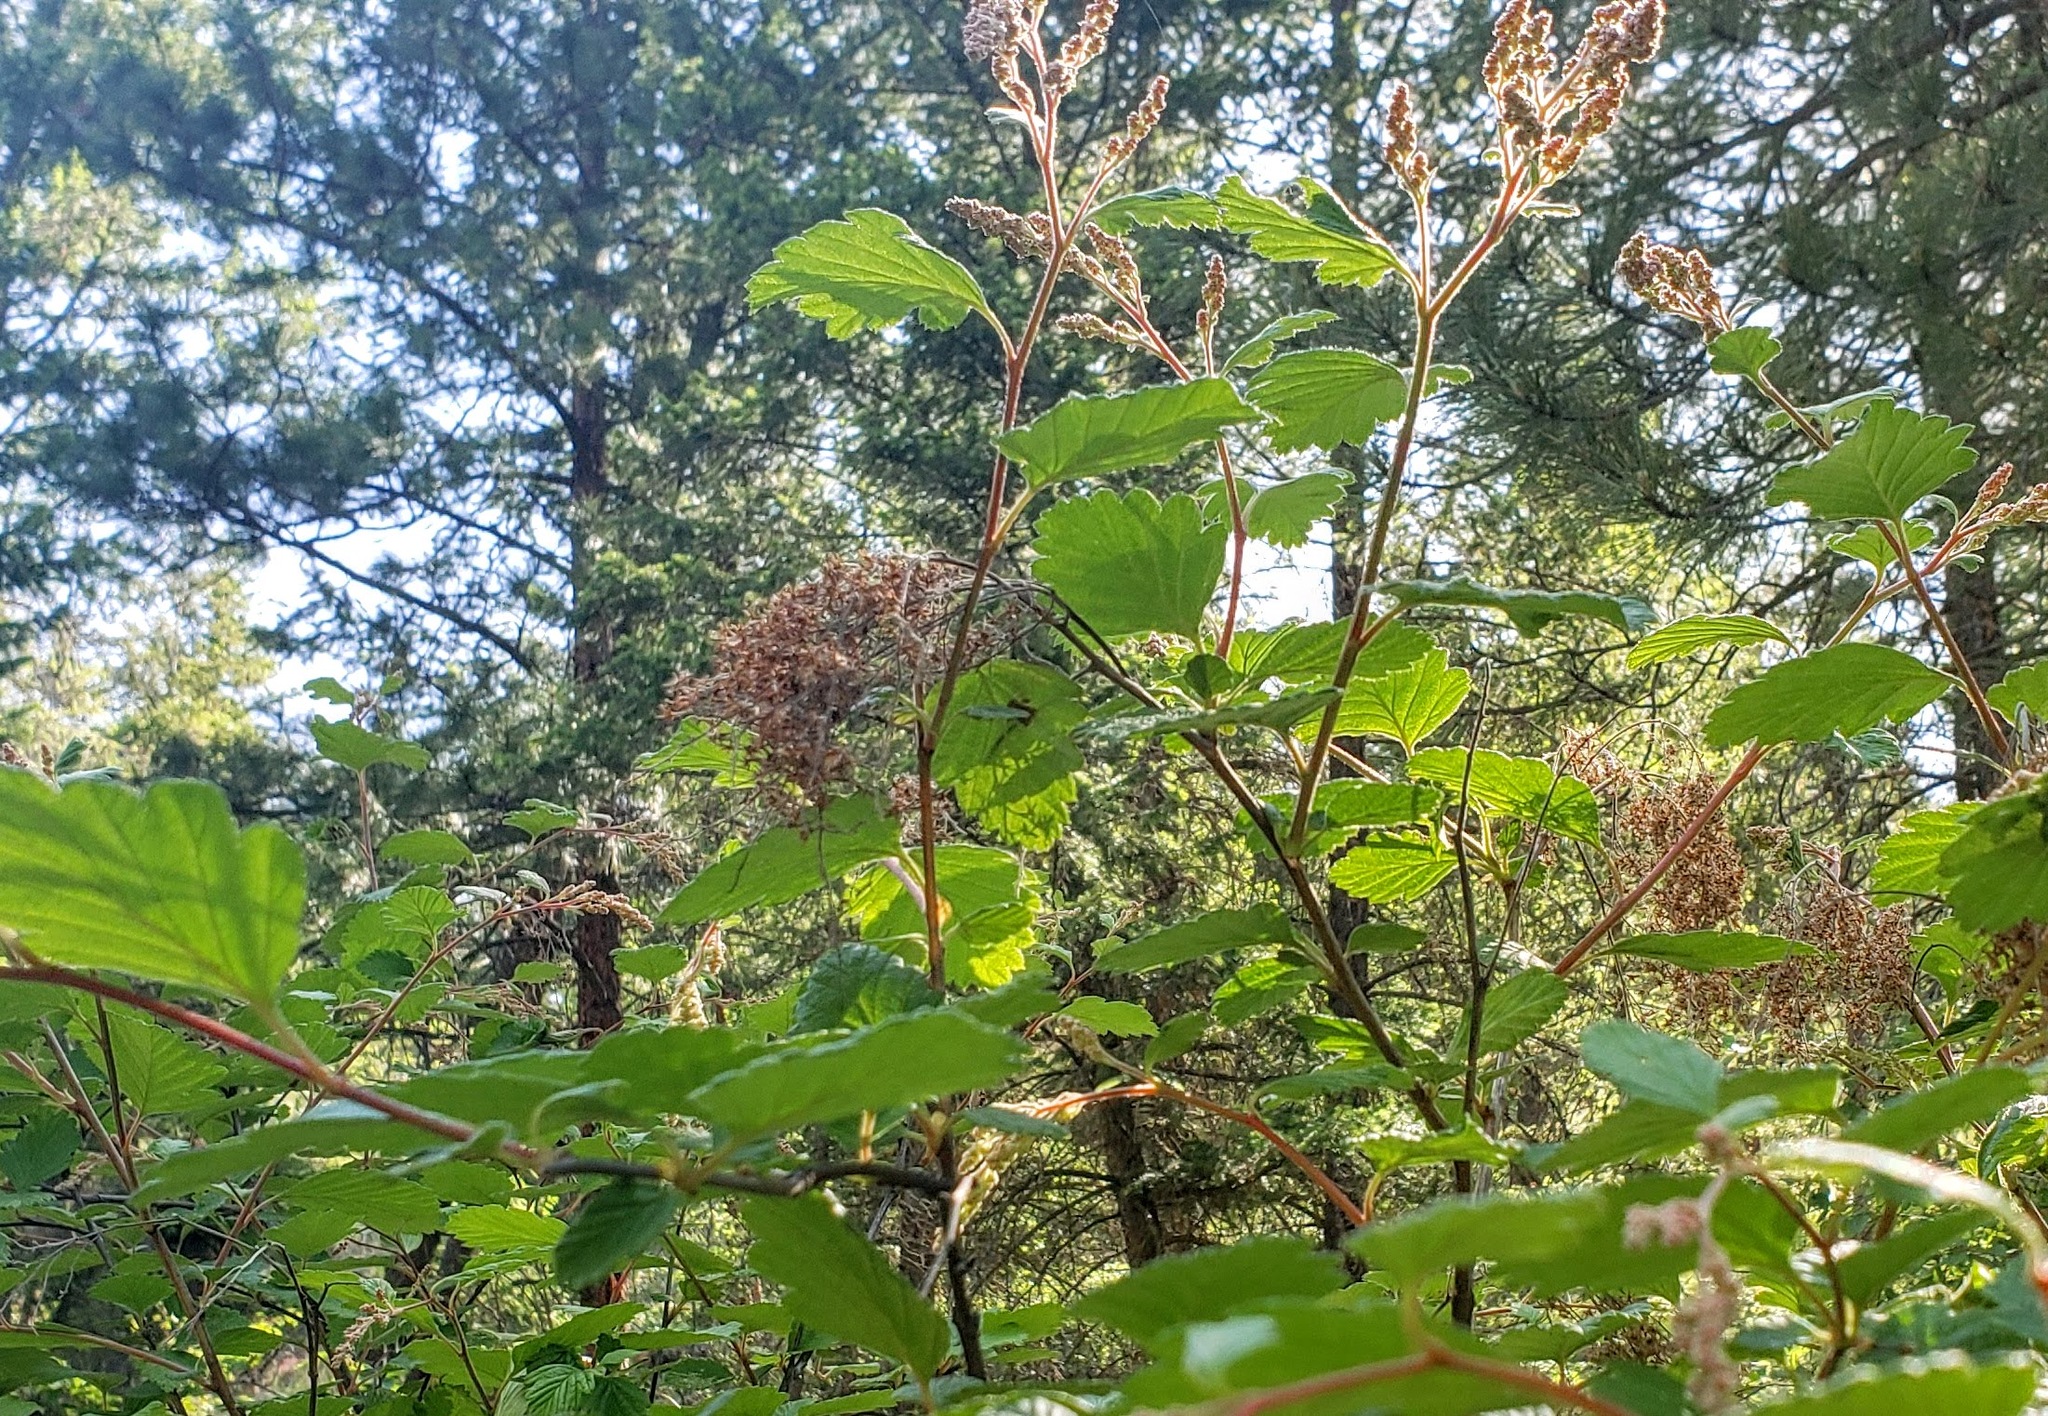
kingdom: Plantae
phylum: Tracheophyta
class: Magnoliopsida
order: Rosales
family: Rosaceae
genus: Holodiscus
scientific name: Holodiscus discolor
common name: Oceanspray
